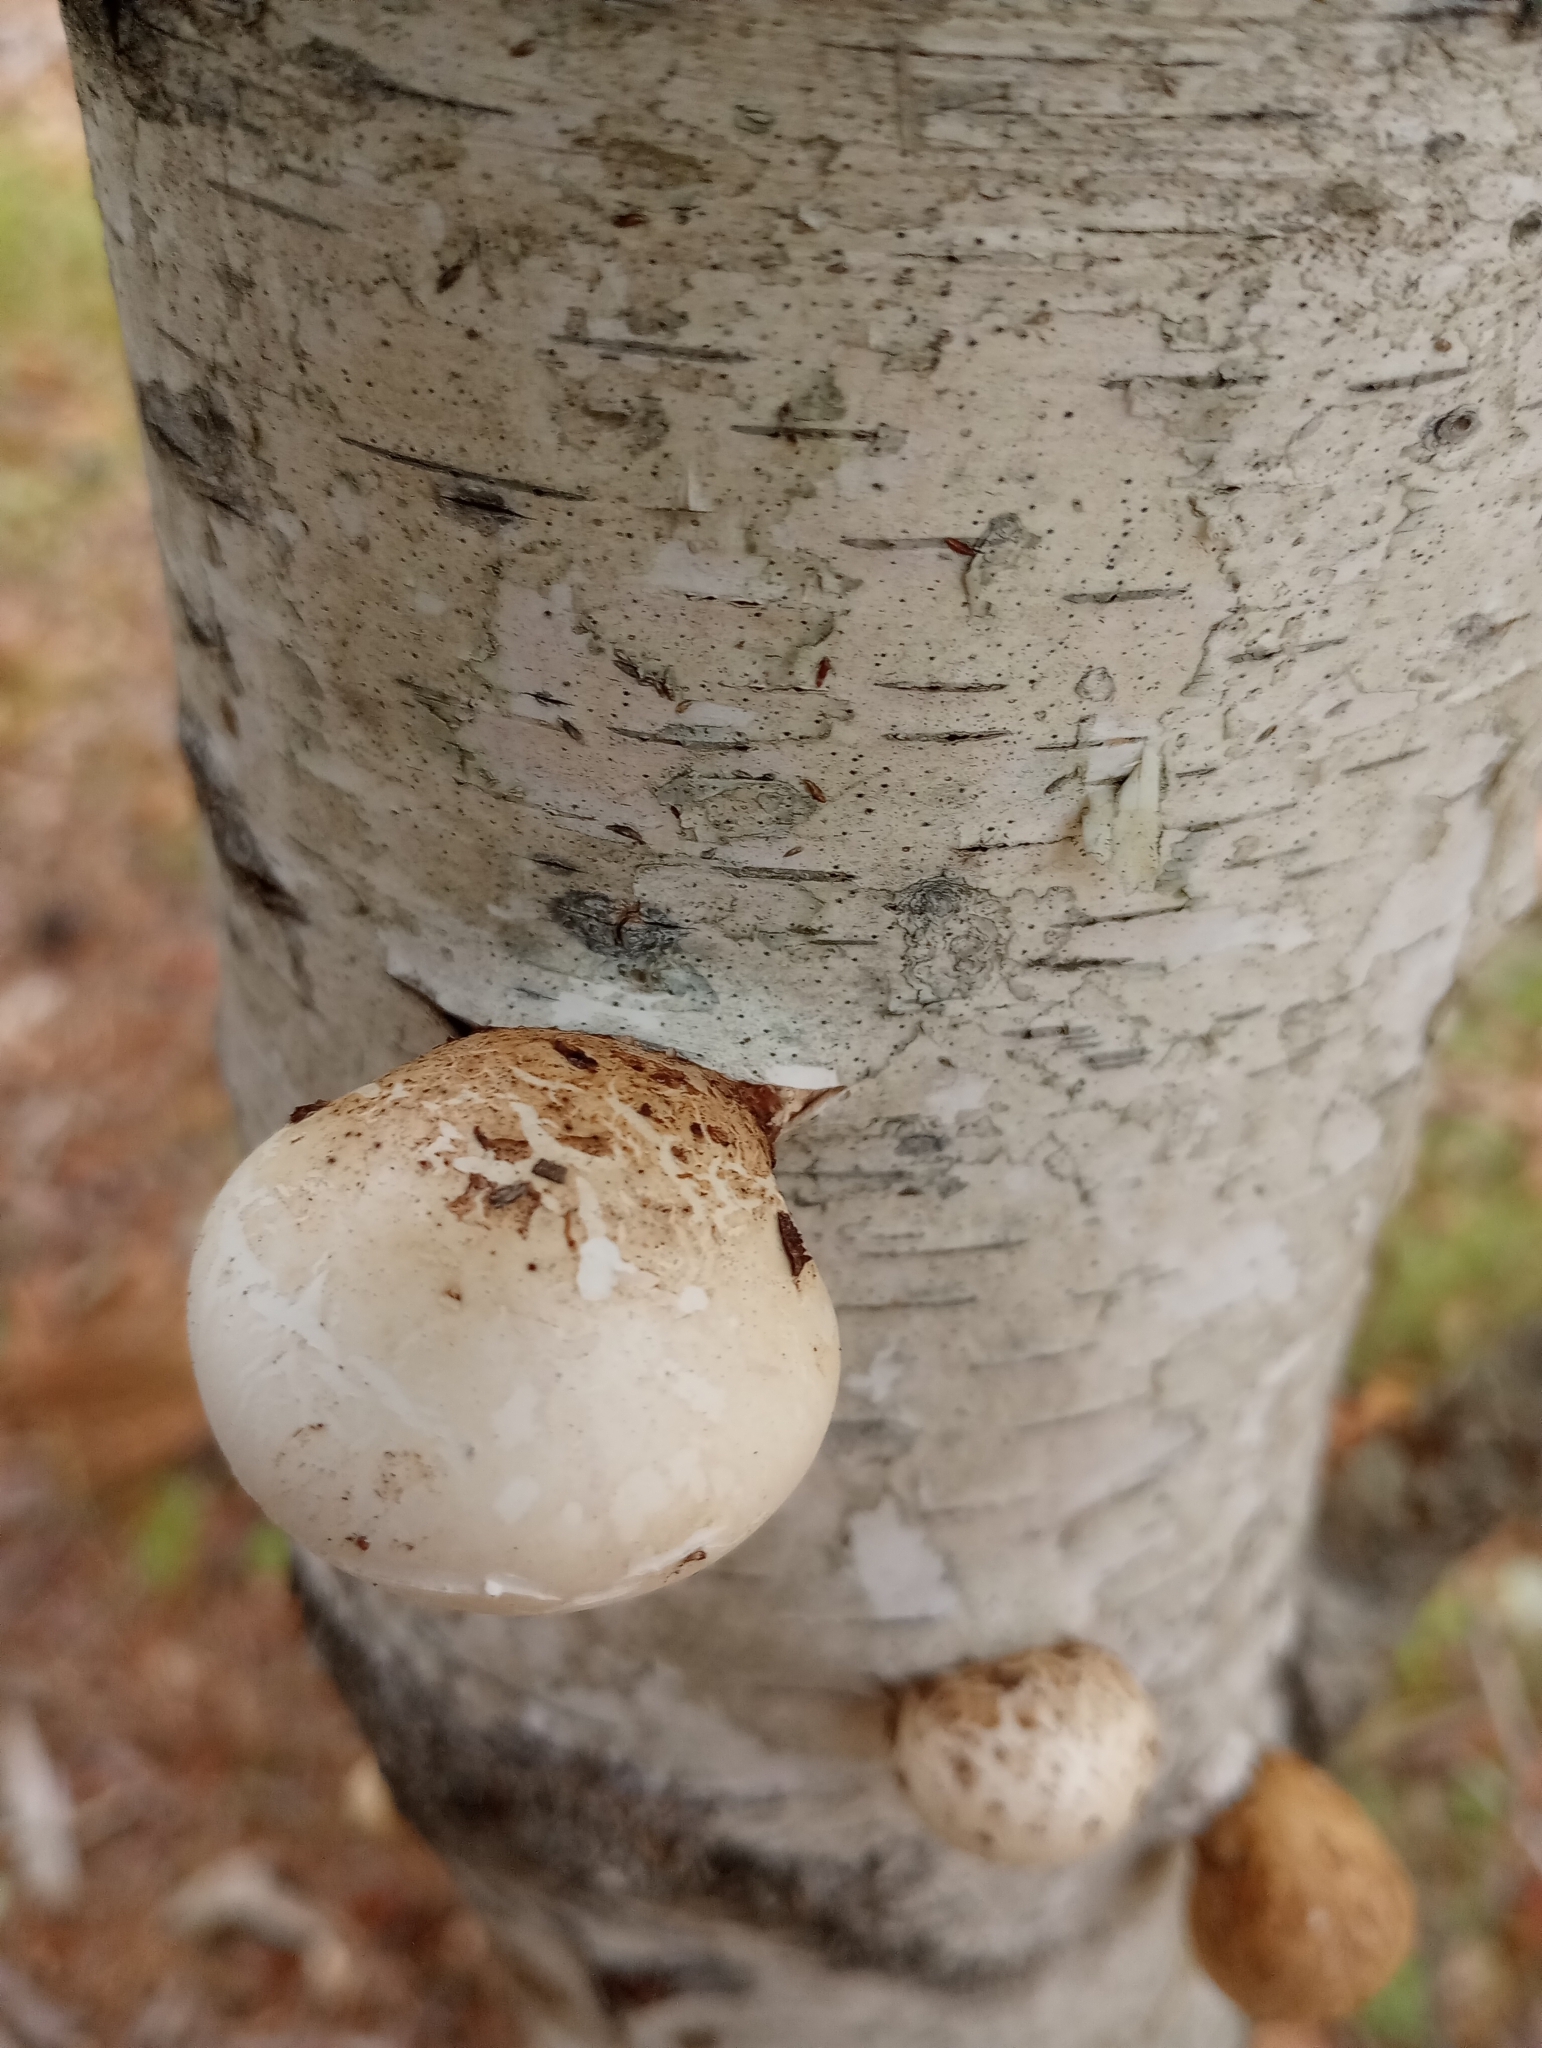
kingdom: Fungi
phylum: Basidiomycota
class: Agaricomycetes
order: Polyporales
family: Fomitopsidaceae
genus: Fomitopsis
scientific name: Fomitopsis betulina
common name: Birch polypore
